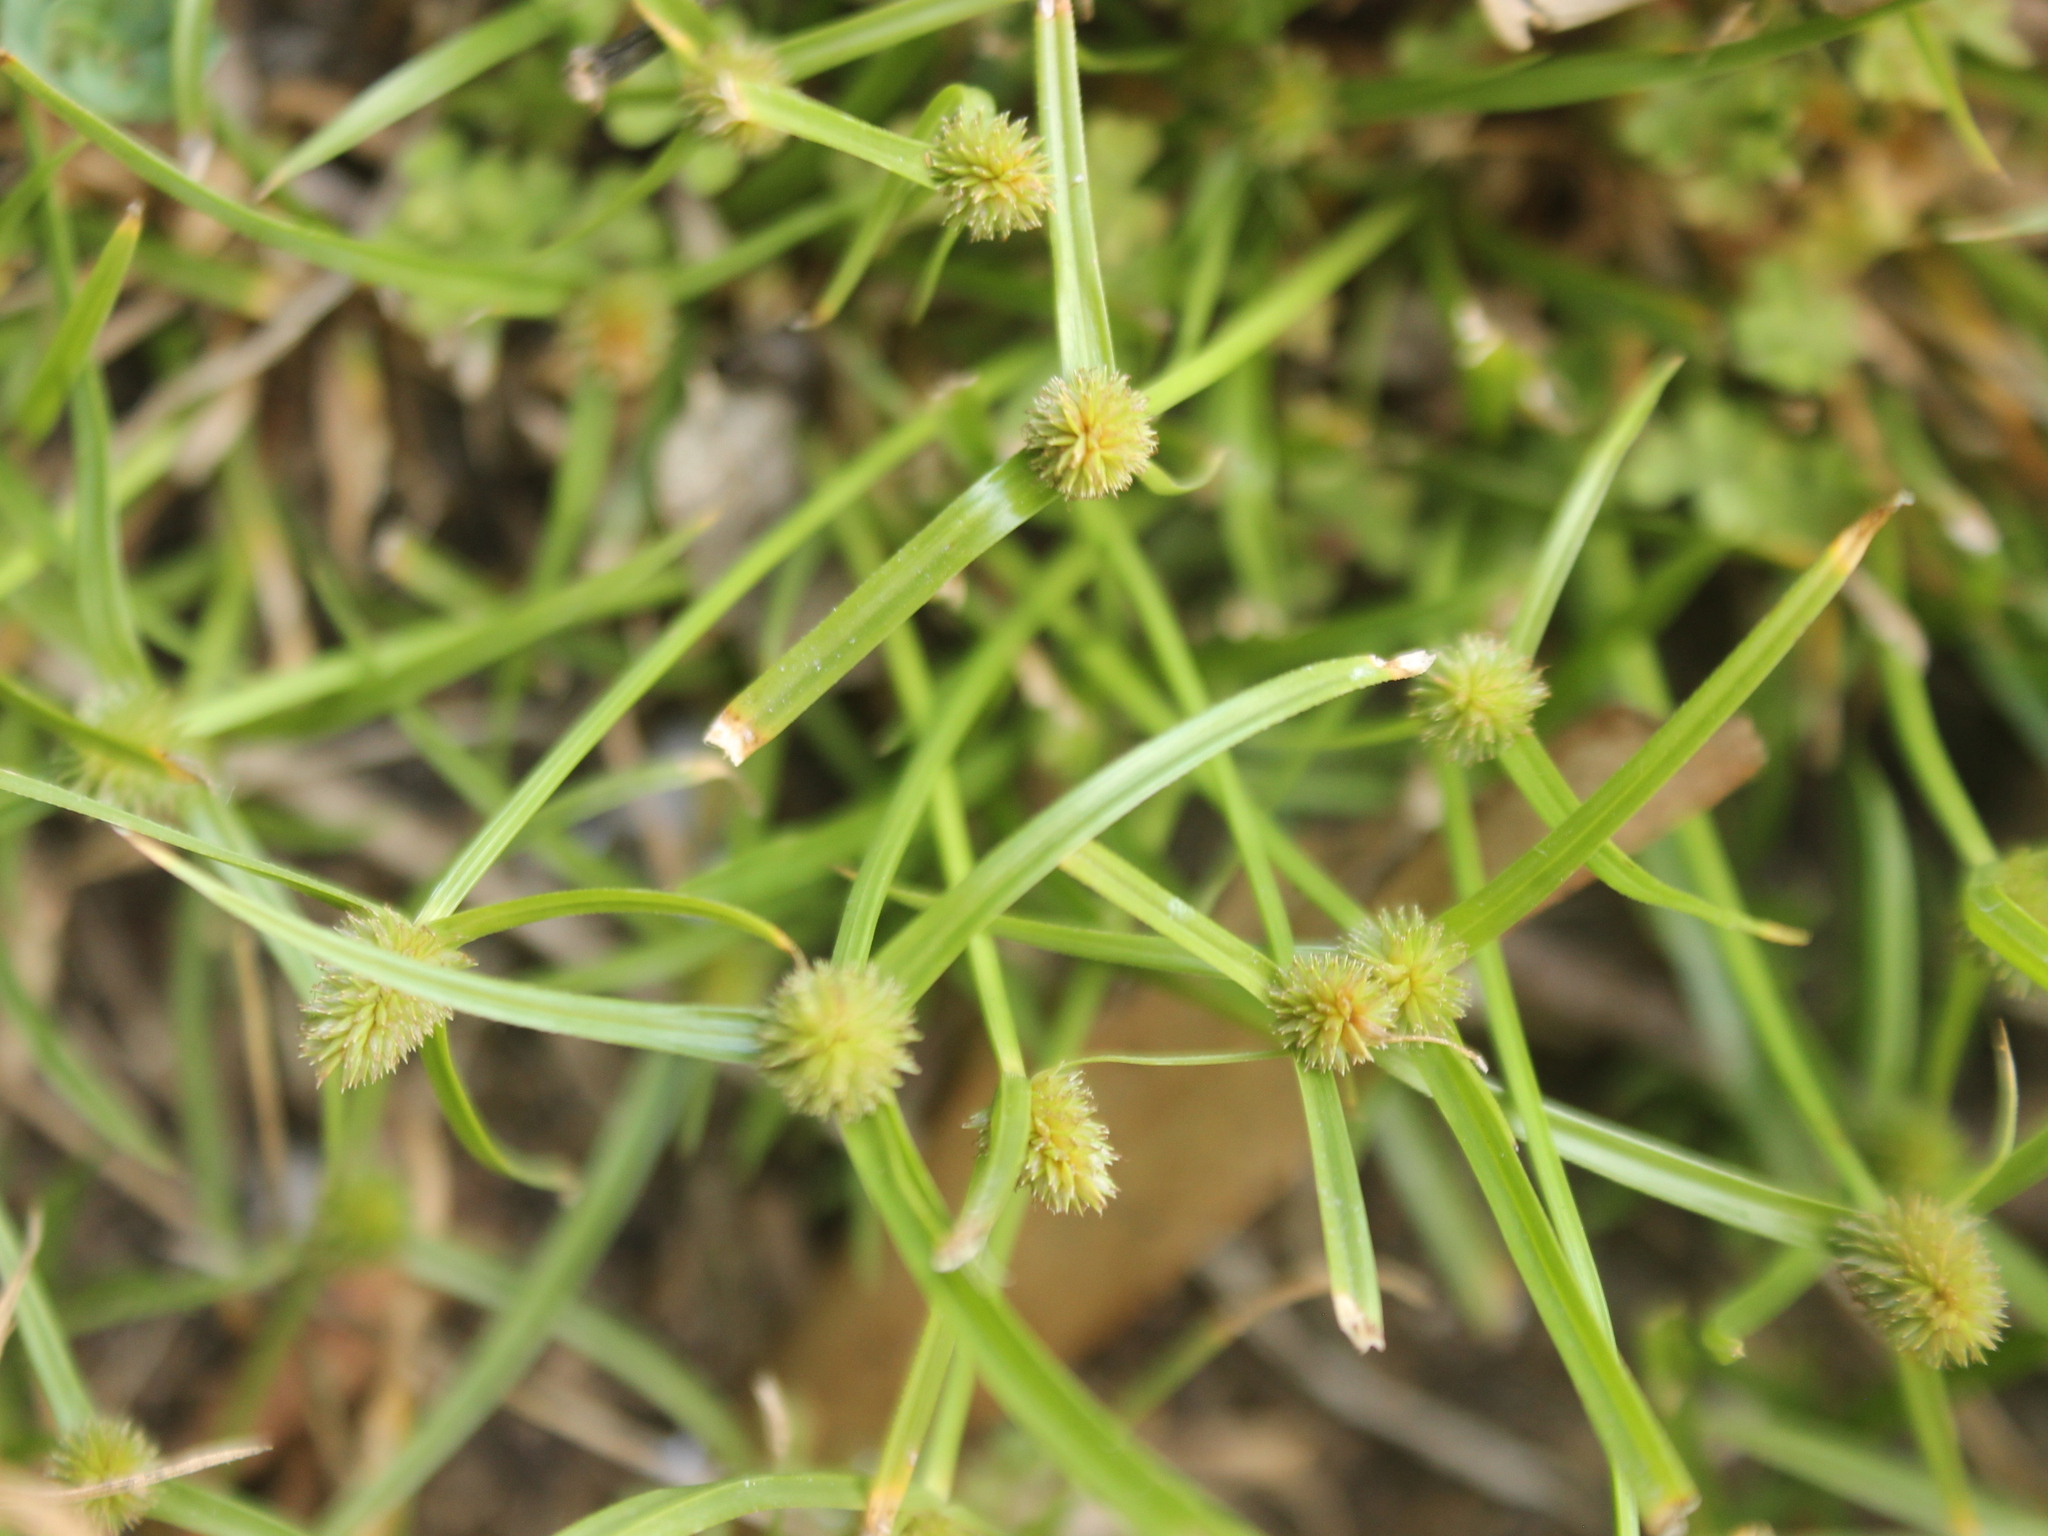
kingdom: Plantae
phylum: Tracheophyta
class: Liliopsida
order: Poales
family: Cyperaceae
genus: Cyperus
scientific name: Cyperus brevifolius
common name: Globe kyllinga
